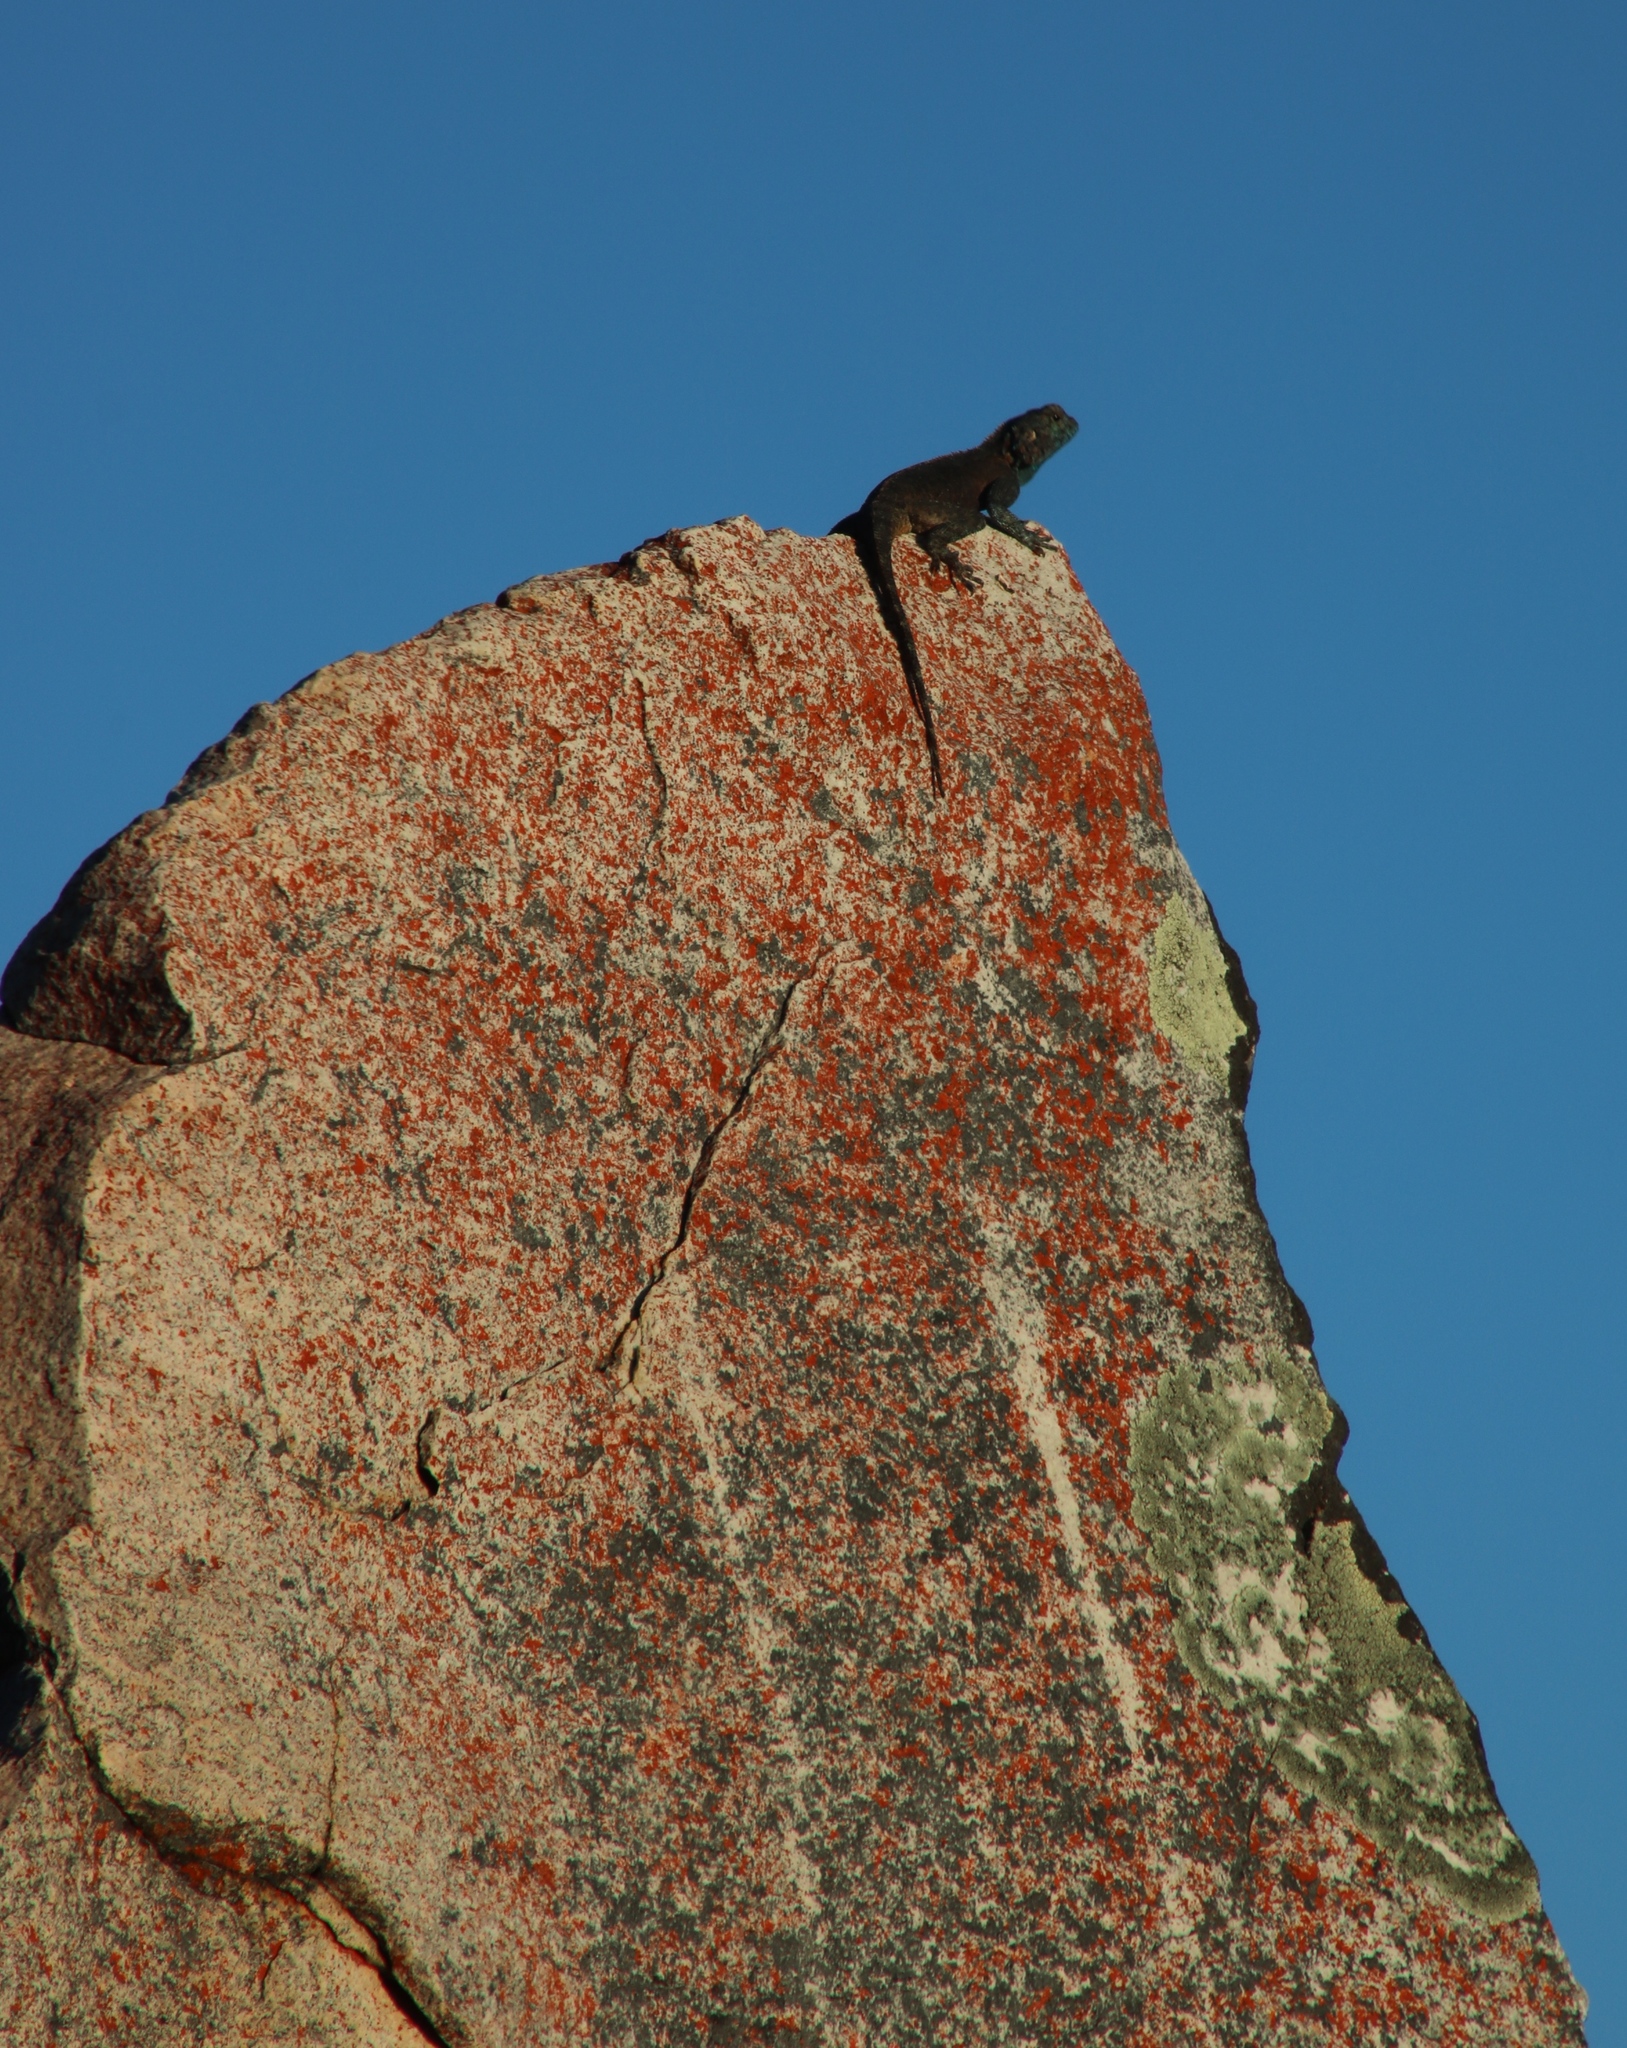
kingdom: Animalia
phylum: Chordata
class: Squamata
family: Agamidae
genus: Agama
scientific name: Agama atra
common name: Southern african rock agama
